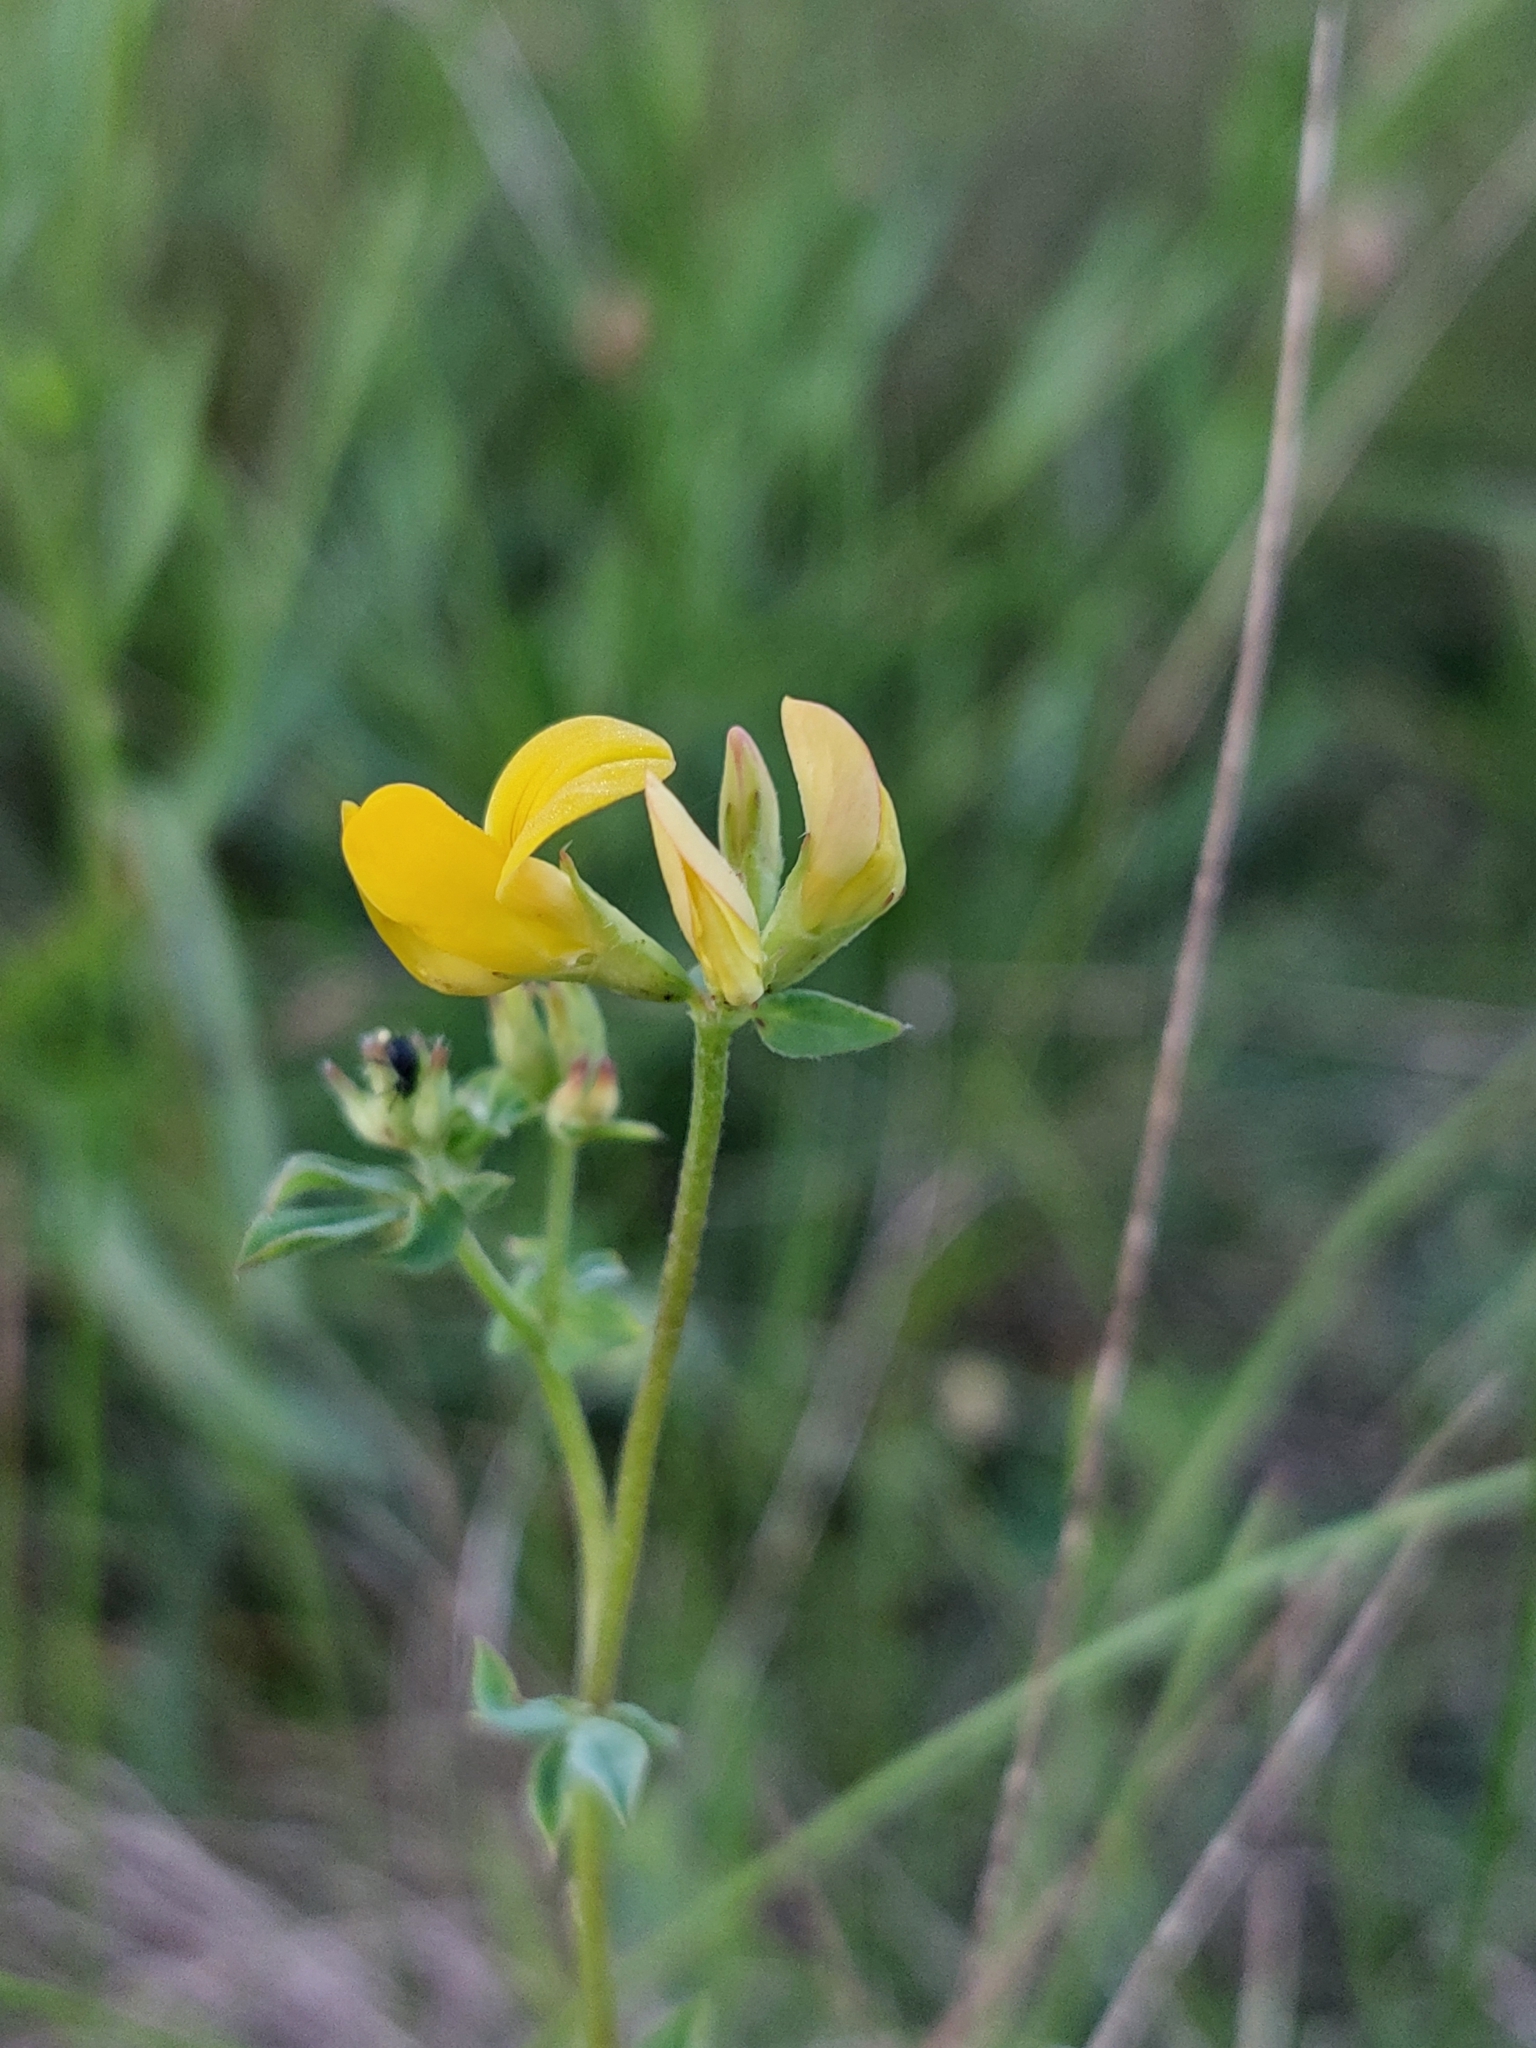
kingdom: Plantae
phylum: Tracheophyta
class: Magnoliopsida
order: Fabales
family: Fabaceae
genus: Lotus
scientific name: Lotus corniculatus
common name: Common bird's-foot-trefoil
